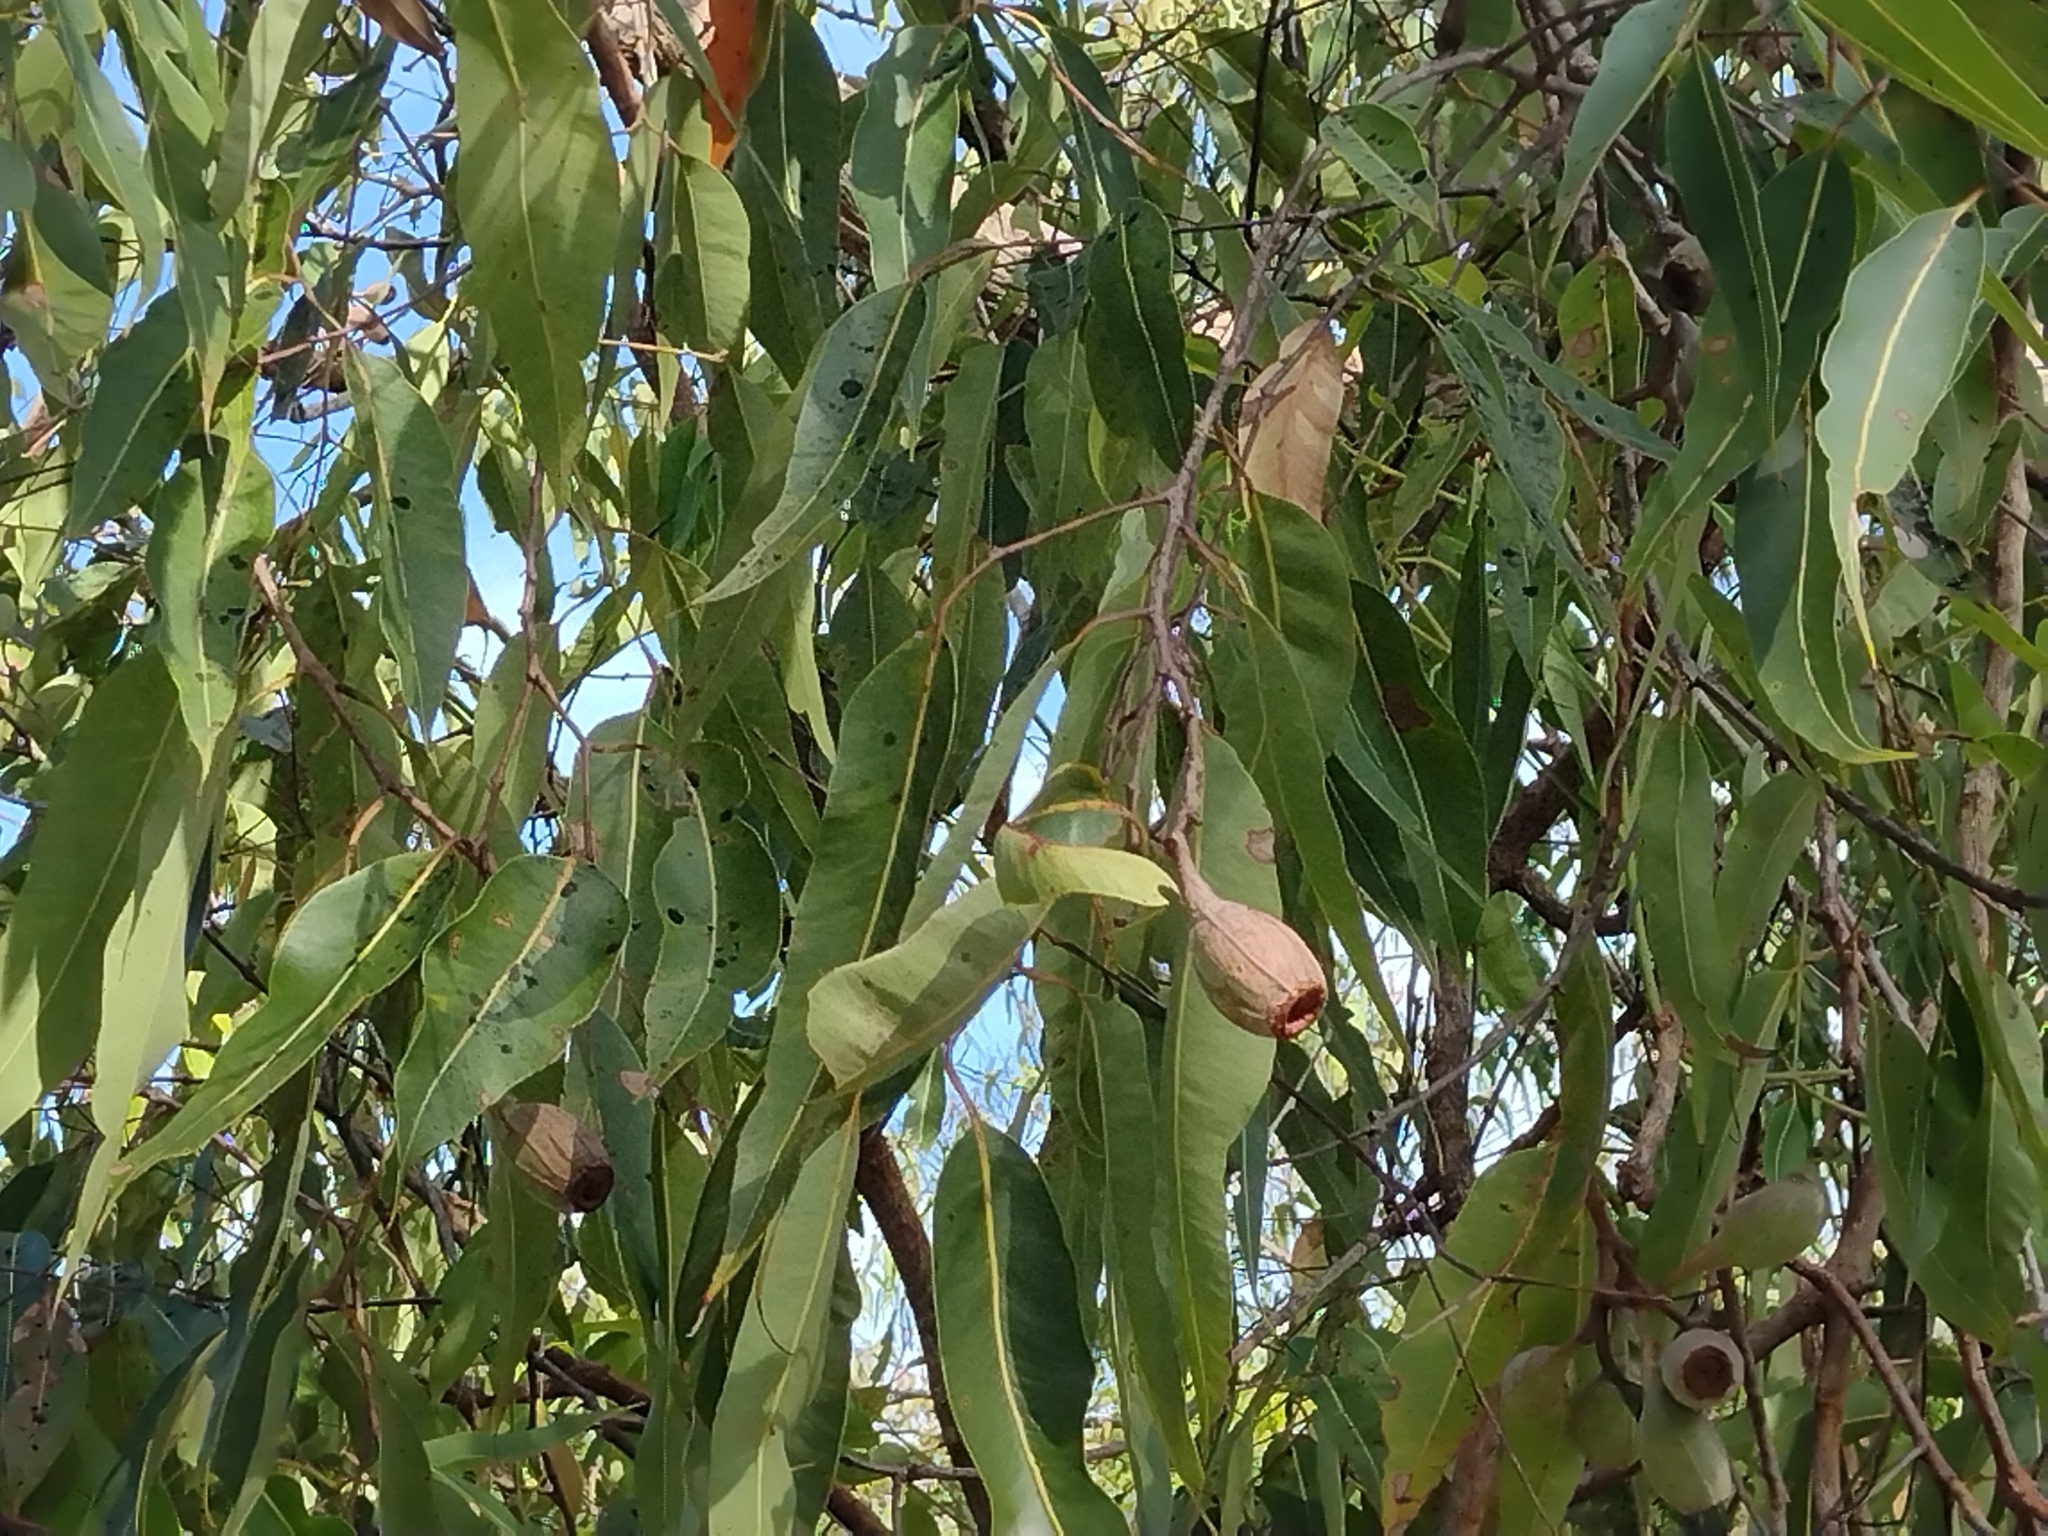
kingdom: Plantae
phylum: Tracheophyta
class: Magnoliopsida
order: Myrtales
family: Myrtaceae
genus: Corymbia
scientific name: Corymbia ptychocarpa
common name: Spring-bloodwood
